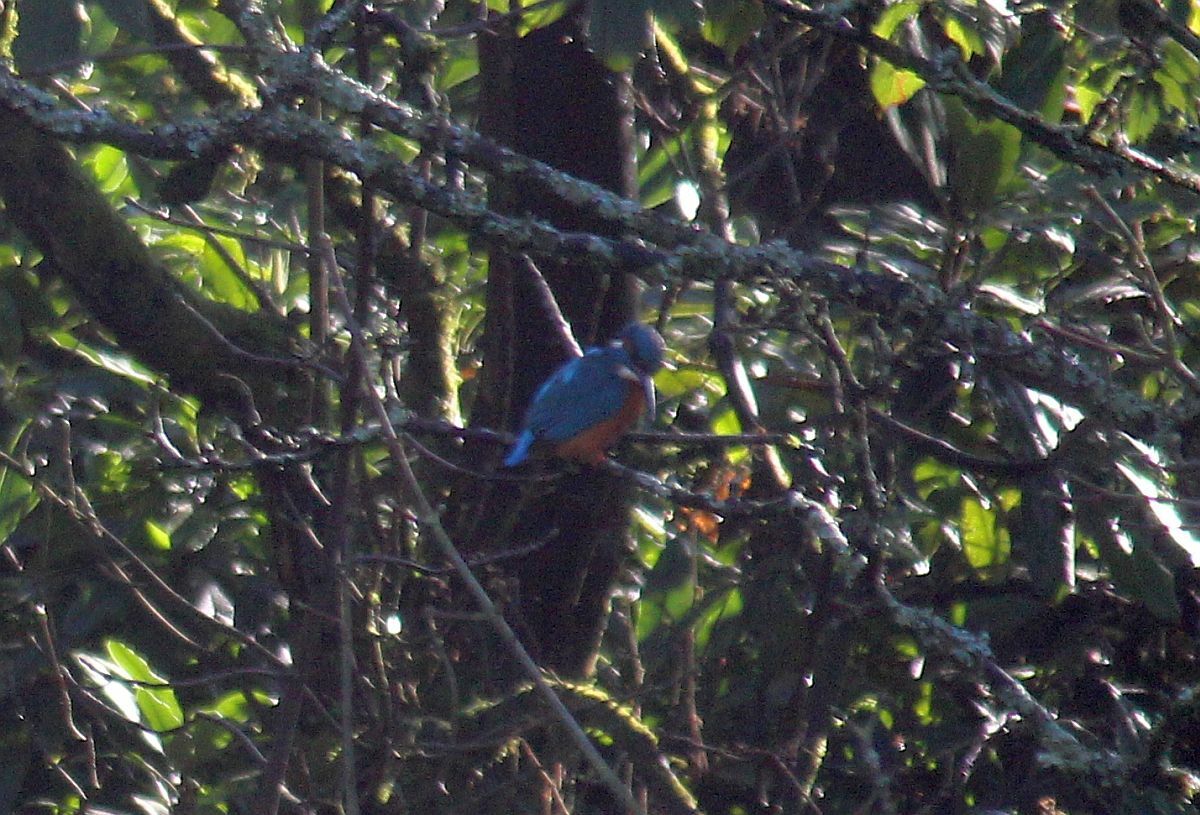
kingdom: Animalia
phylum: Chordata
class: Aves
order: Coraciiformes
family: Alcedinidae
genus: Alcedo
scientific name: Alcedo atthis
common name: Common kingfisher
